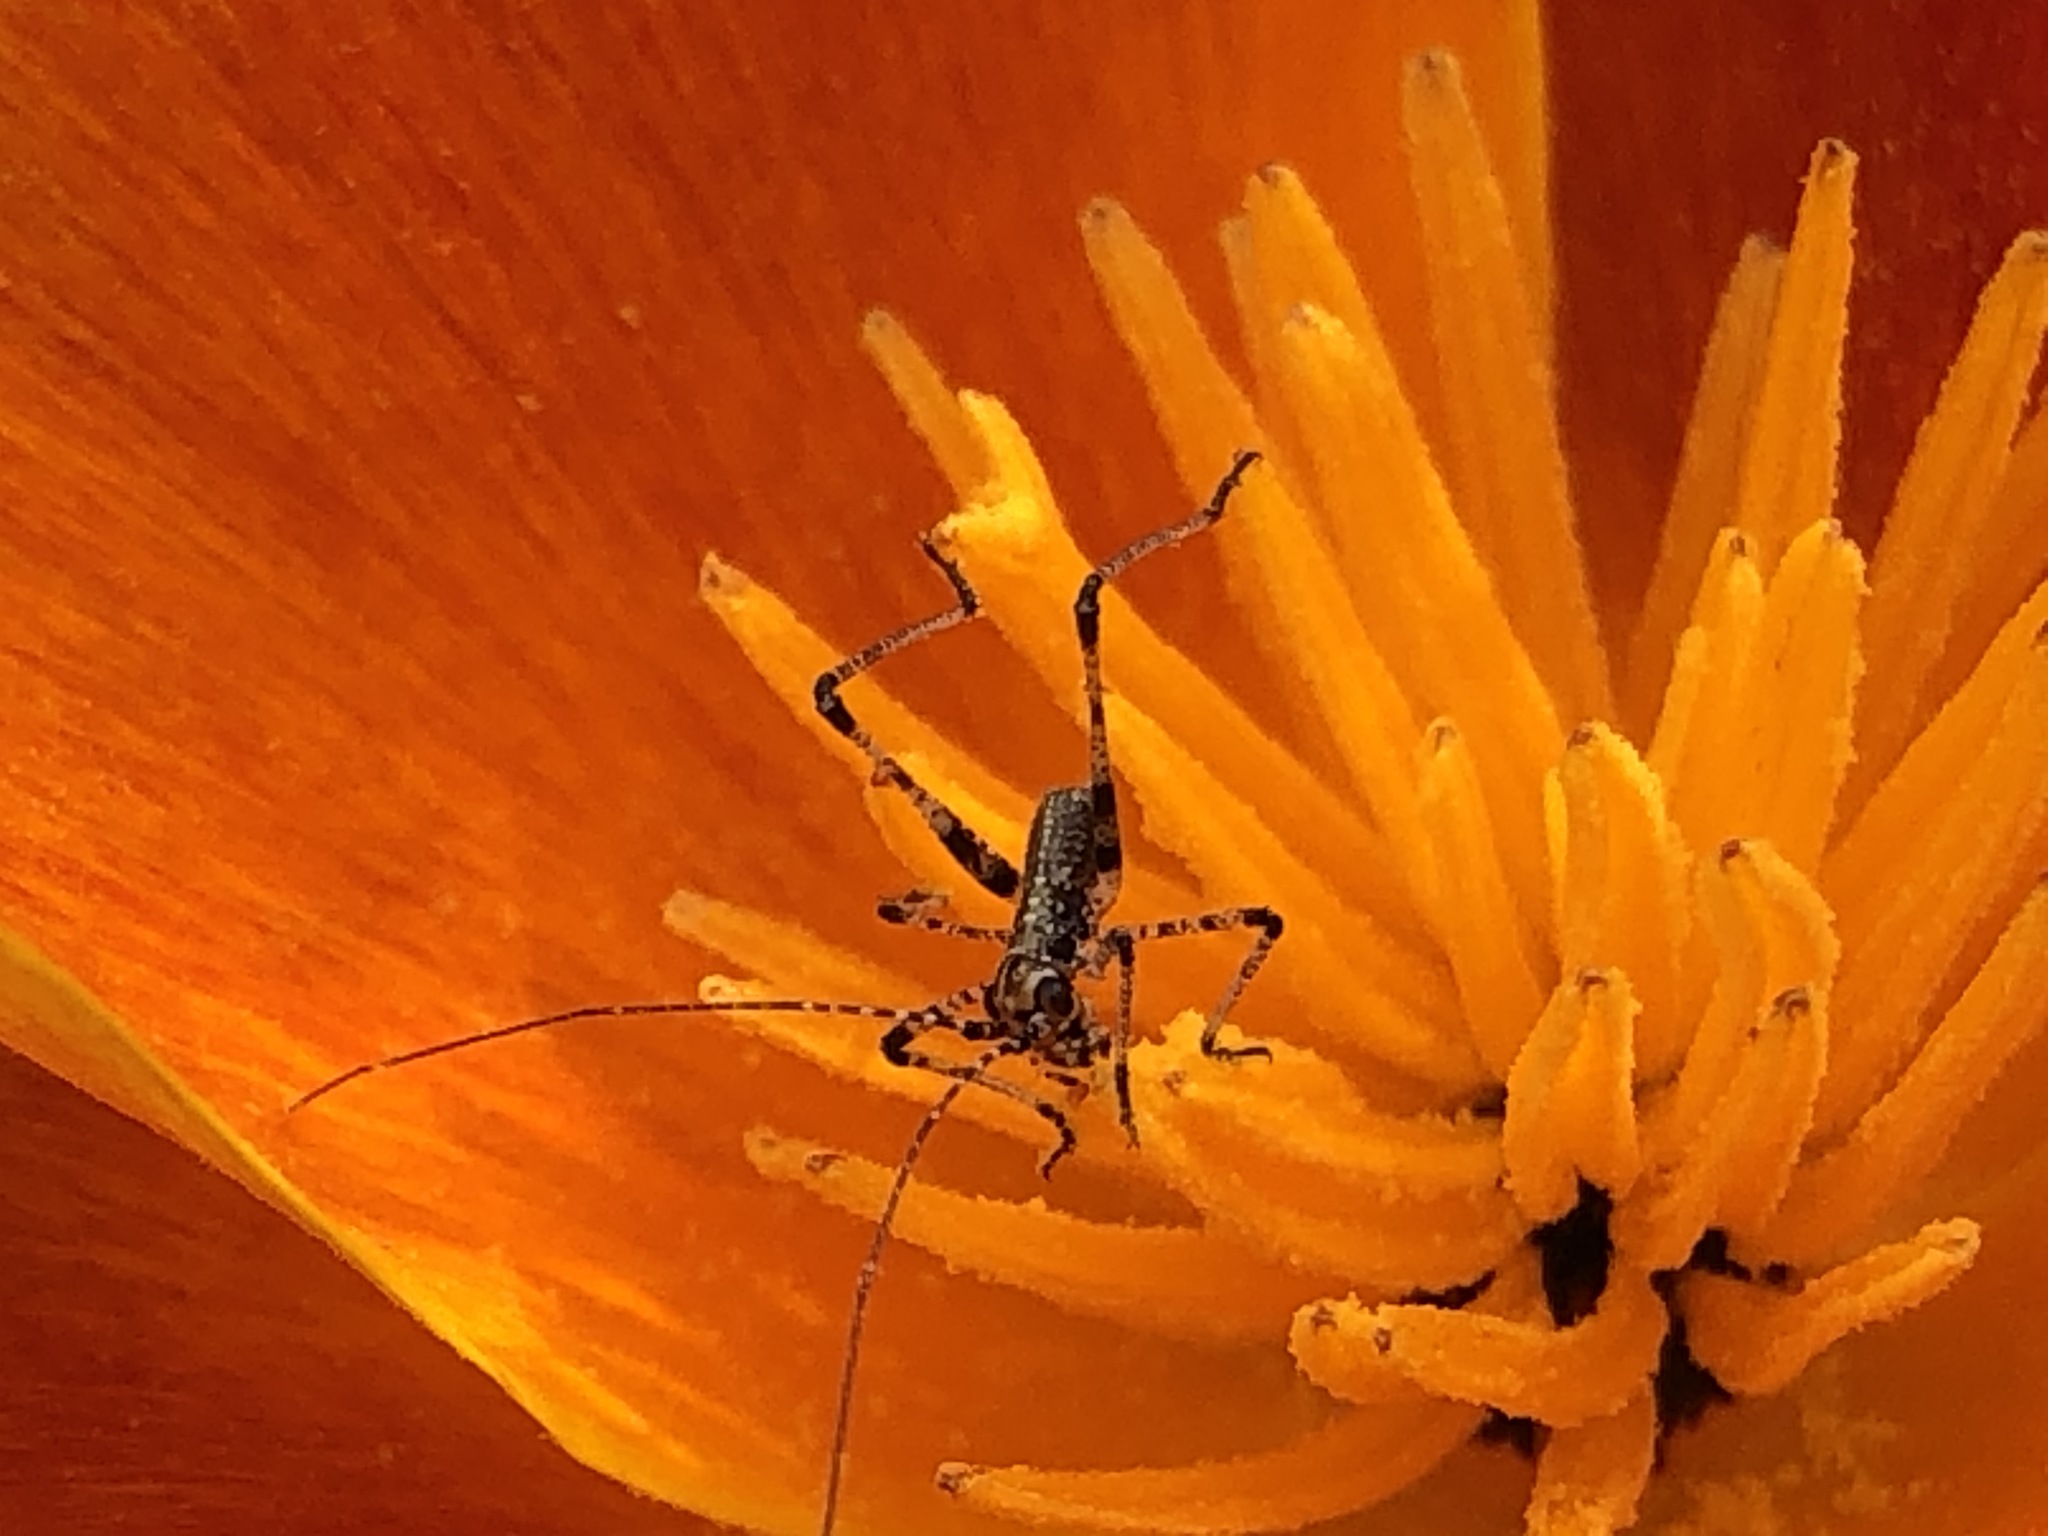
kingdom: Animalia
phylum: Arthropoda
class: Insecta
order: Orthoptera
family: Tettigoniidae
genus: Phaneroptera
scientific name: Phaneroptera nana
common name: Southern sickle bush-cricket
